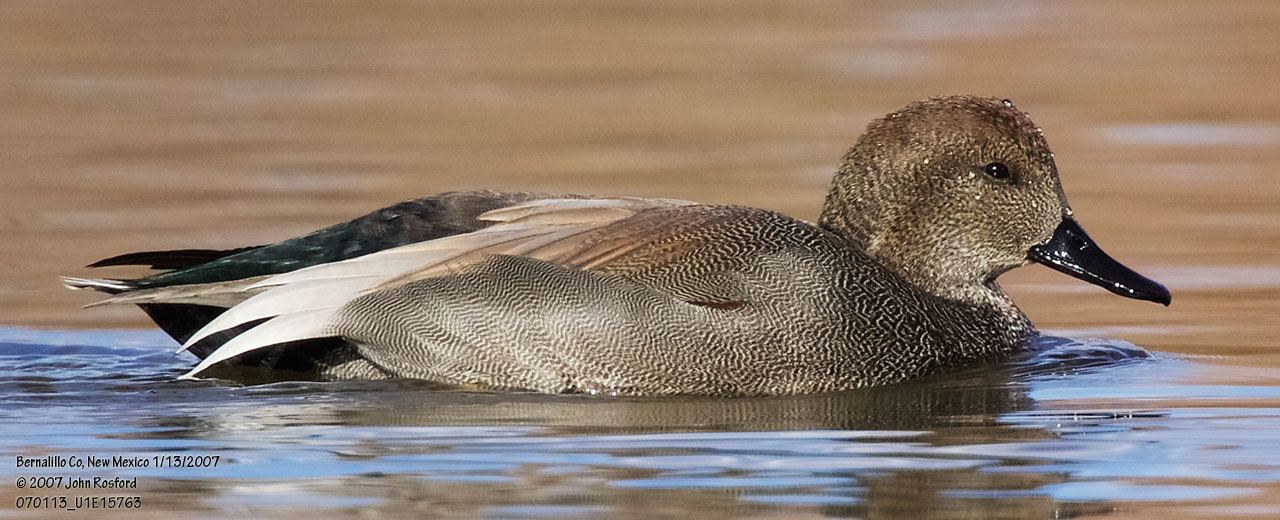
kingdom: Animalia
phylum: Chordata
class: Aves
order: Anseriformes
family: Anatidae
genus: Mareca
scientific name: Mareca strepera
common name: Gadwall
